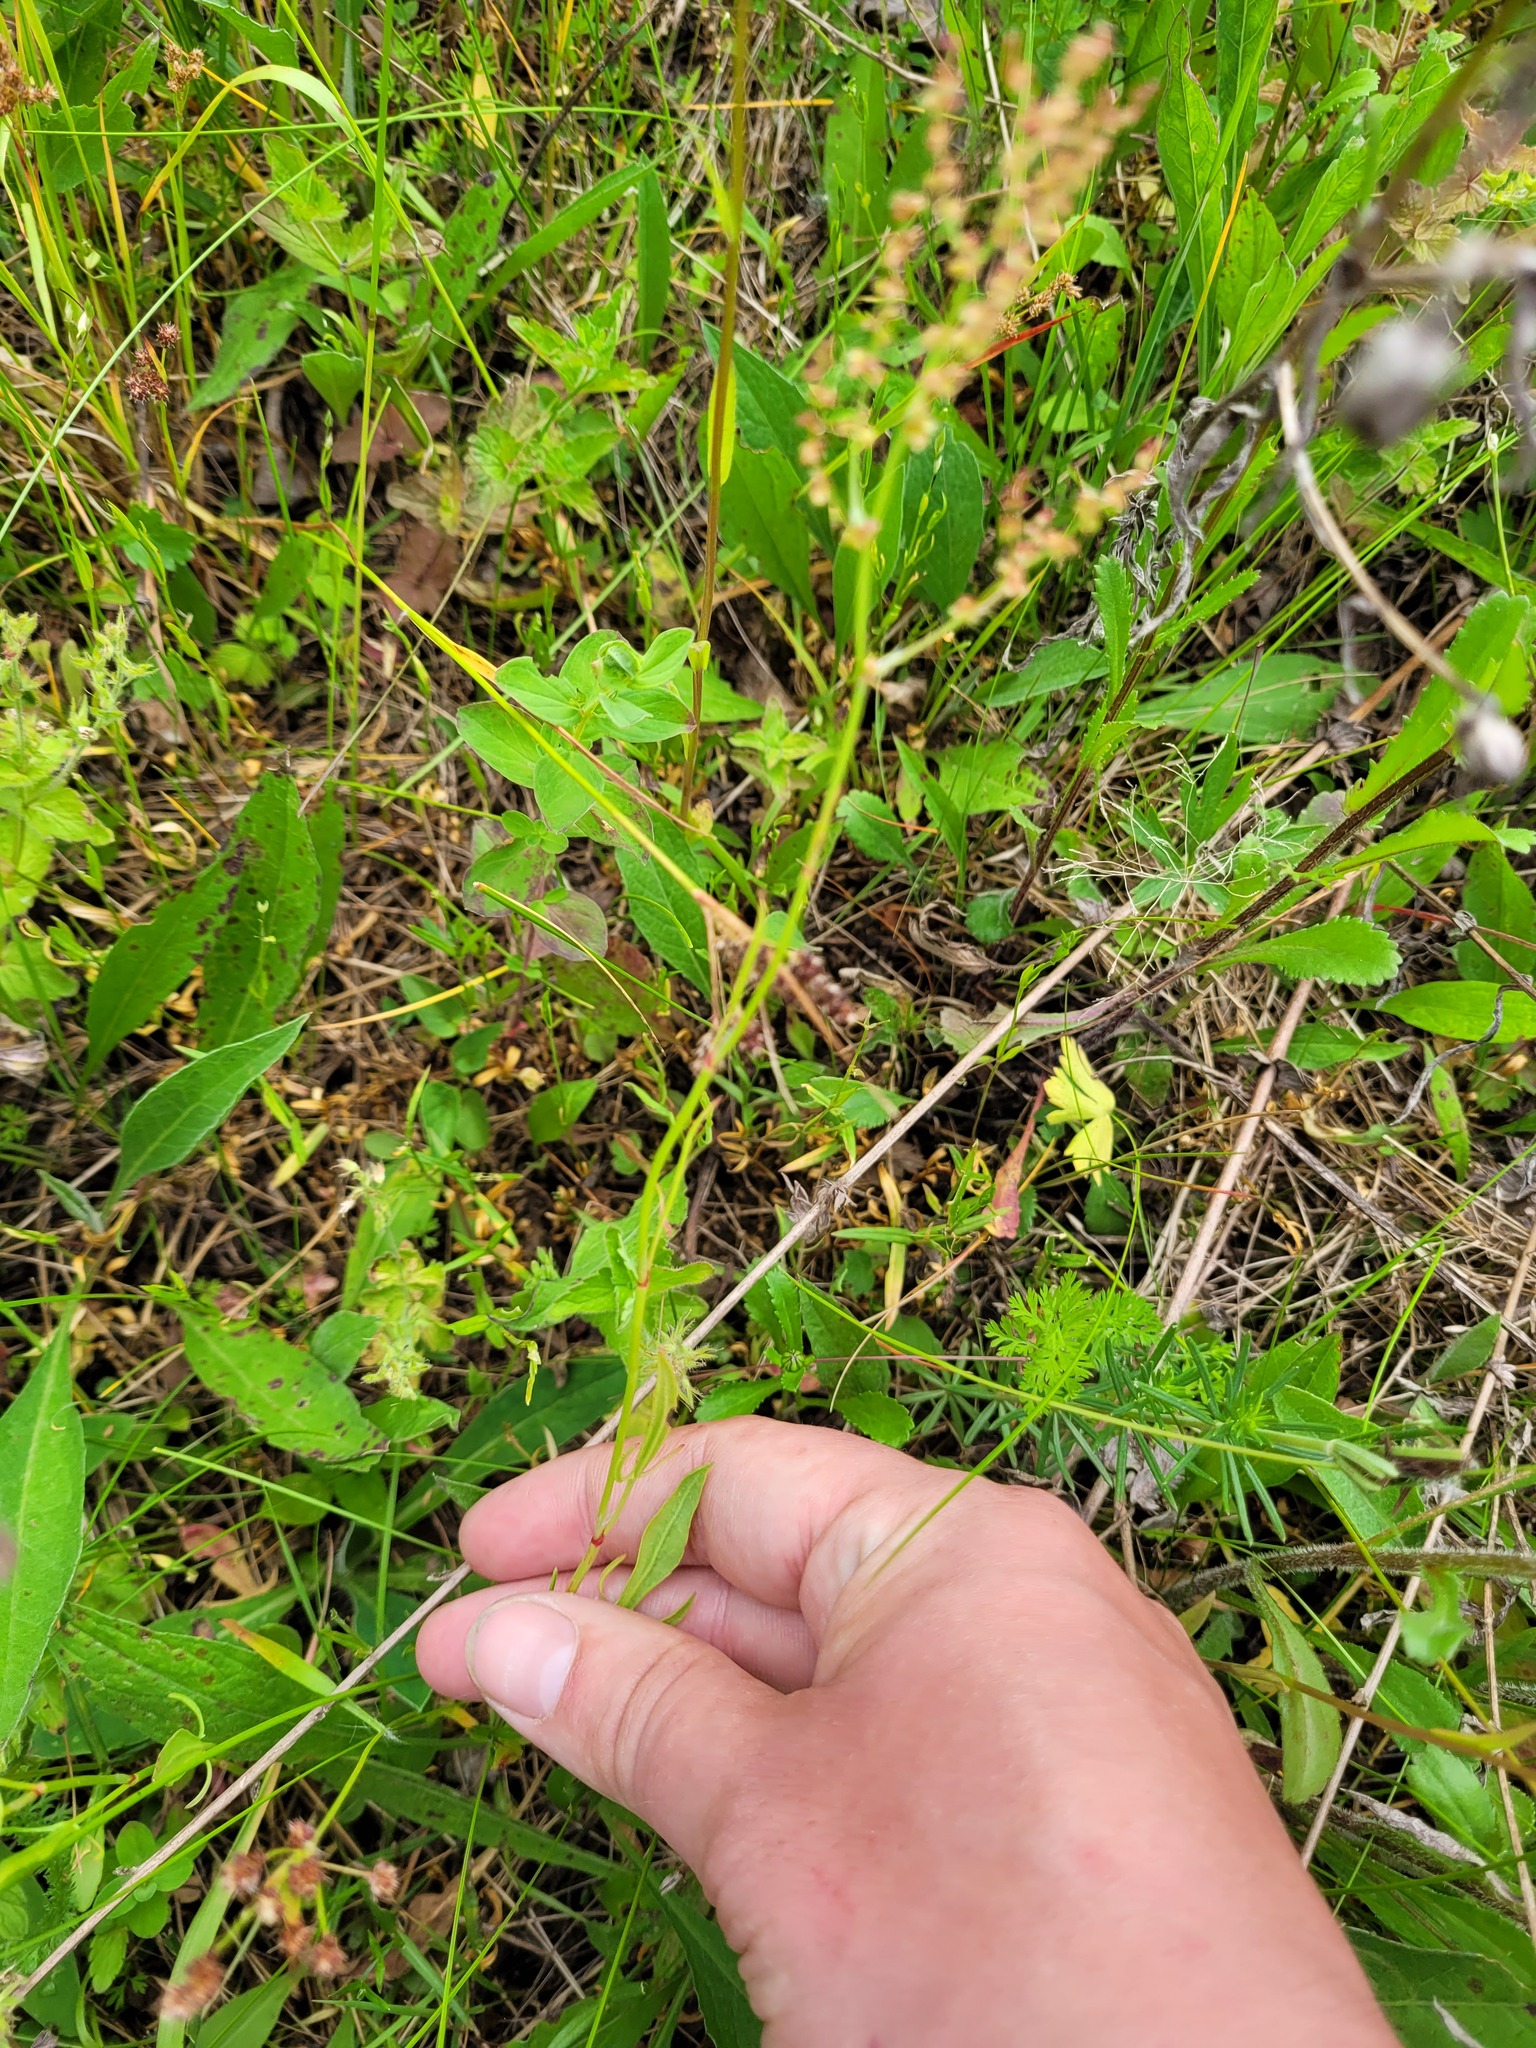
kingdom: Plantae
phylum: Tracheophyta
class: Magnoliopsida
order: Caryophyllales
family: Polygonaceae
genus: Rumex
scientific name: Rumex acetosella
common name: Common sheep sorrel
